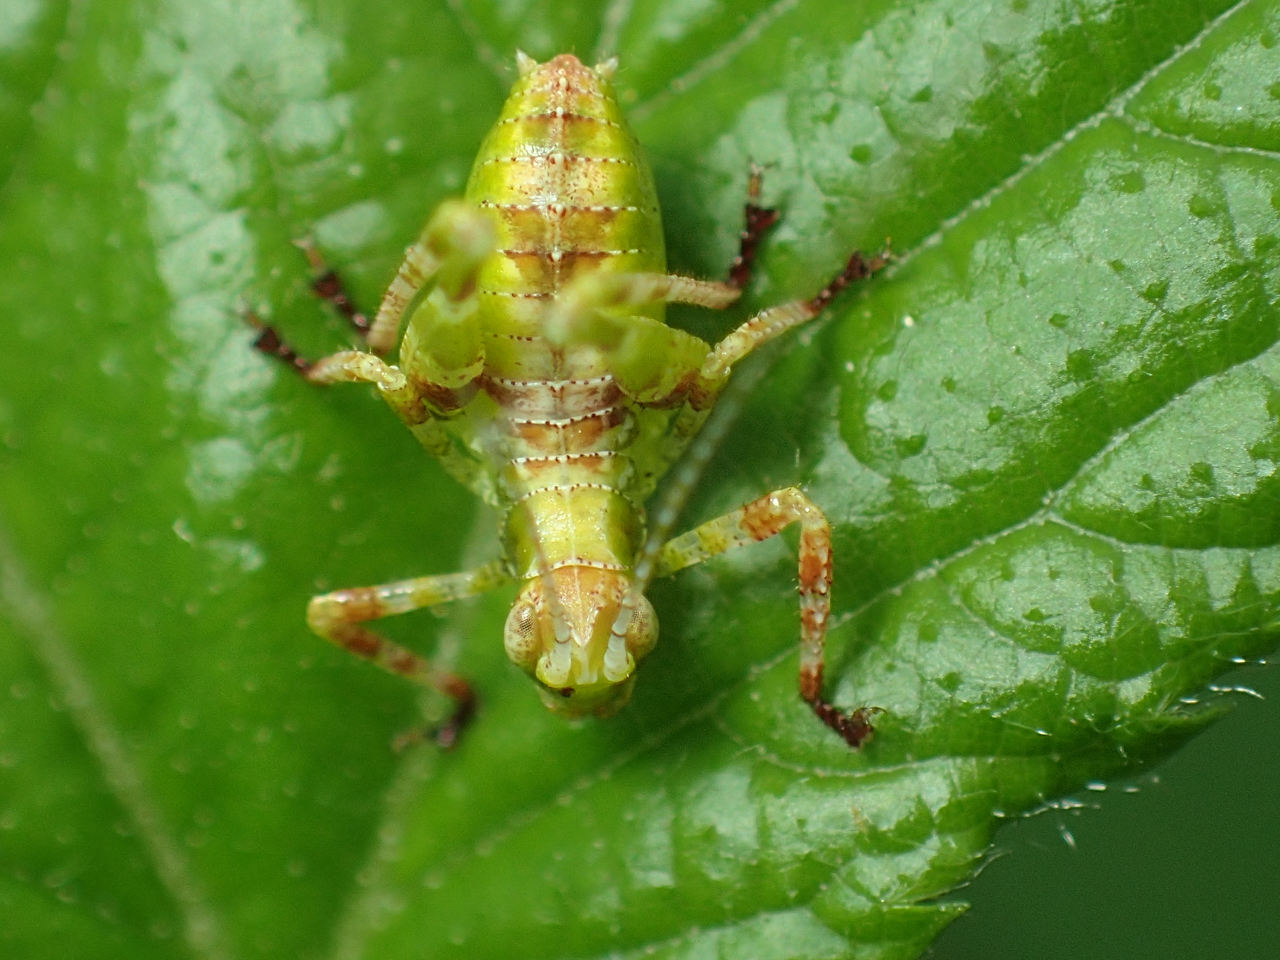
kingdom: Animalia
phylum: Arthropoda
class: Insecta
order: Orthoptera
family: Tettigoniidae
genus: Montezumina
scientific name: Montezumina modesta
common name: Modest katydid
